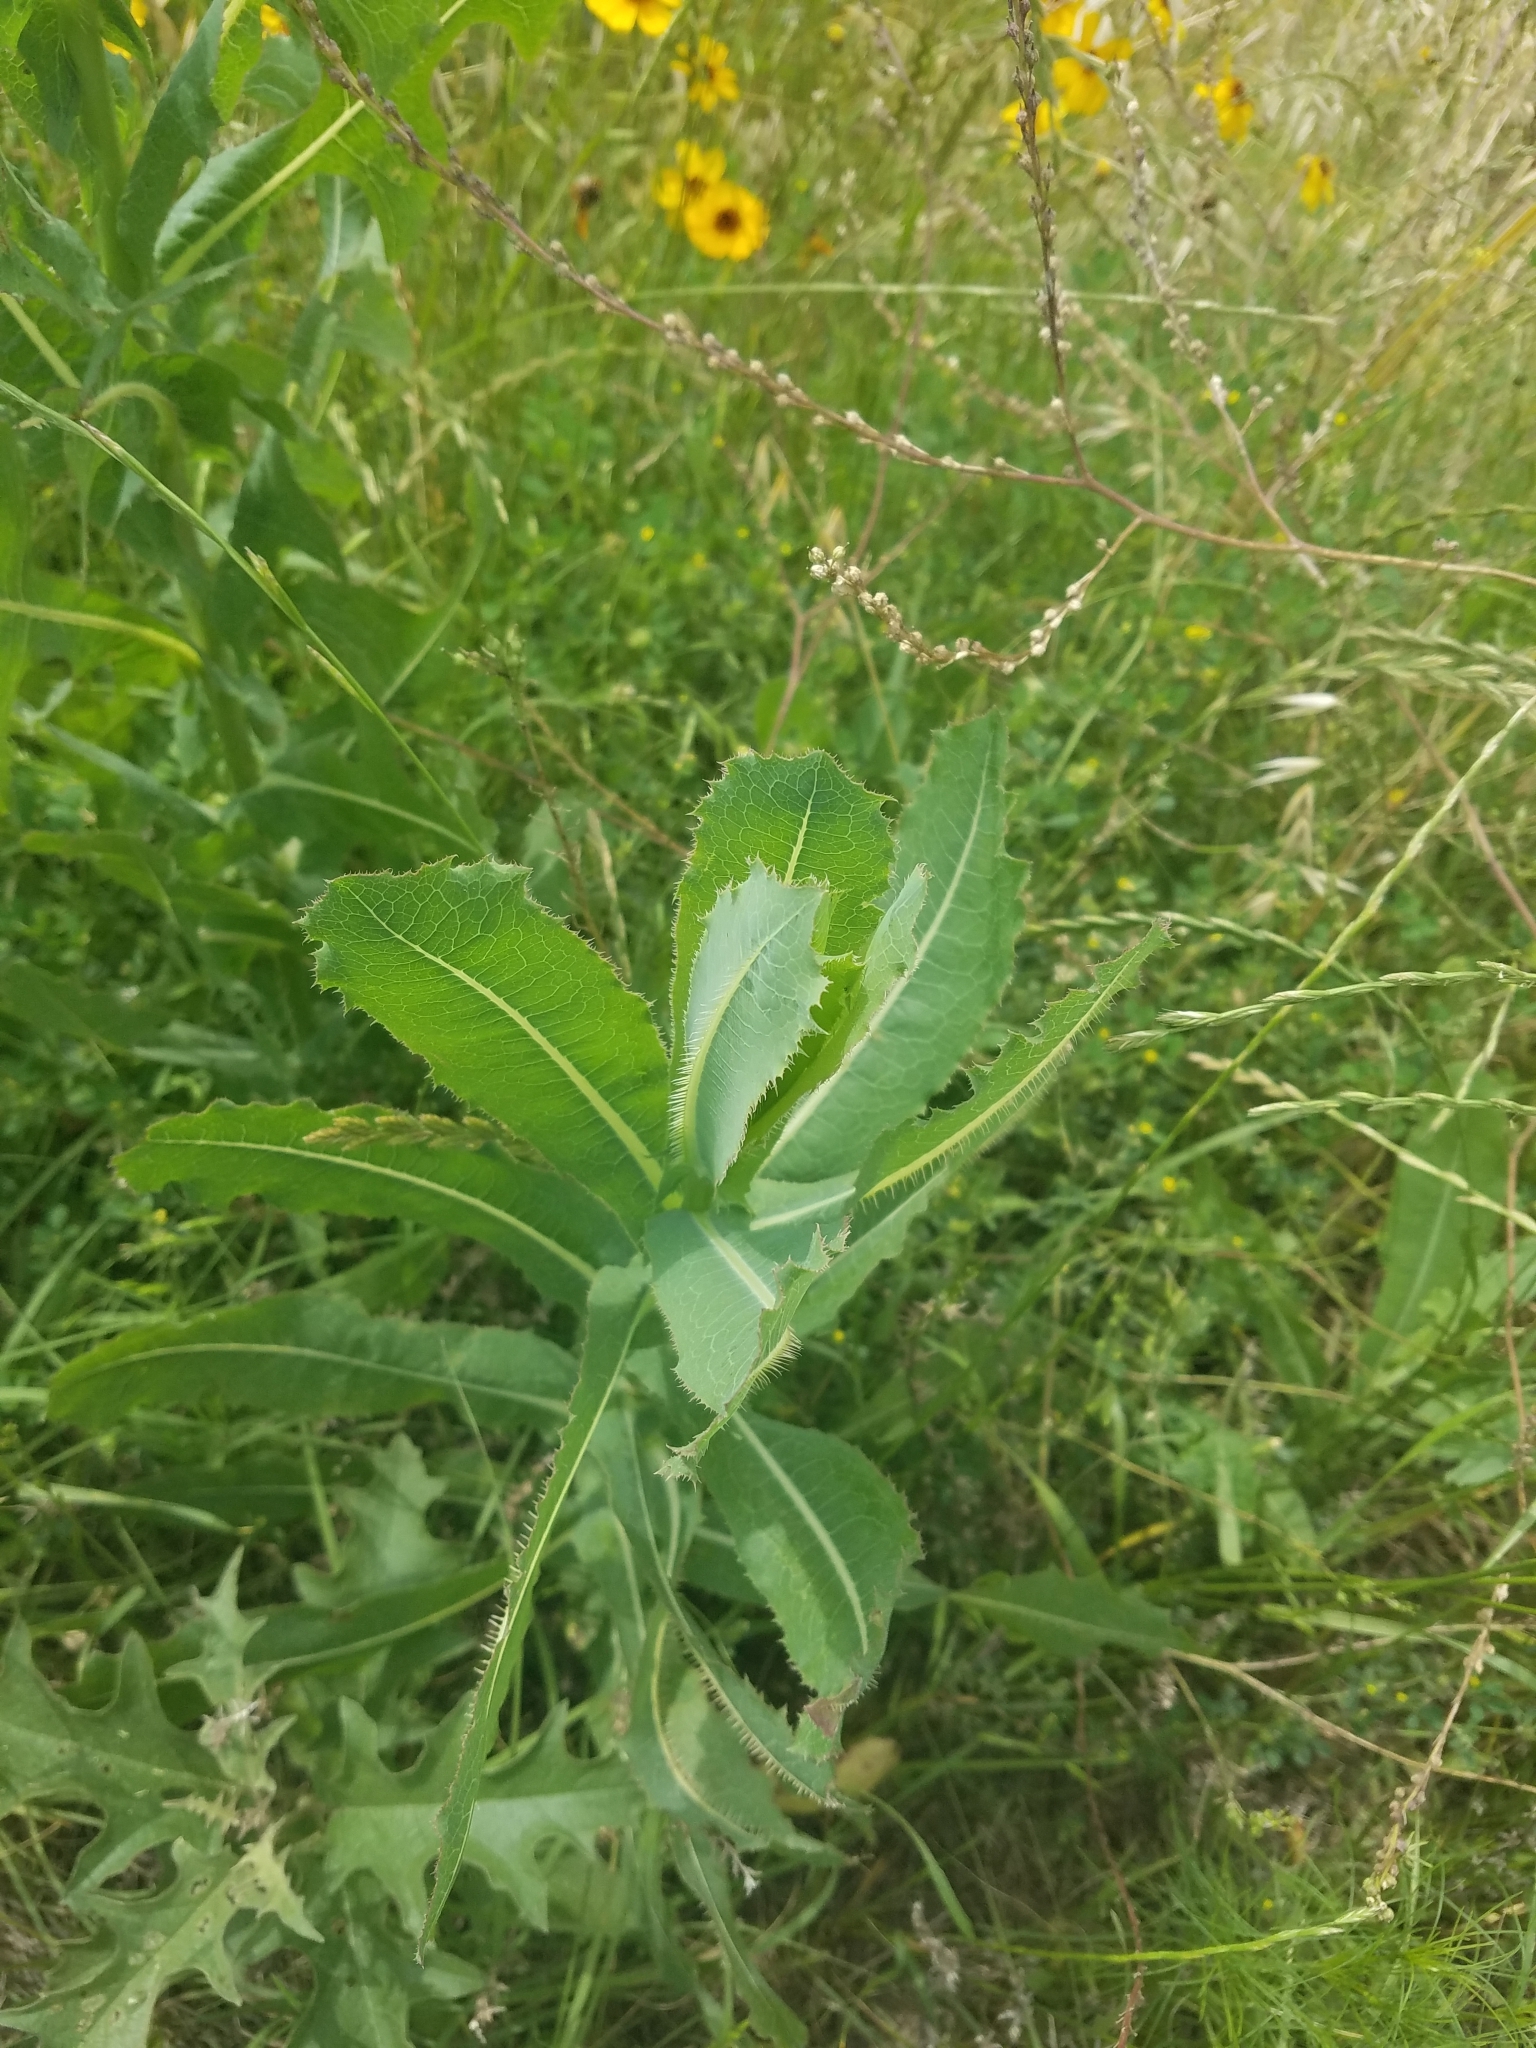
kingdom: Plantae
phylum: Tracheophyta
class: Magnoliopsida
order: Asterales
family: Asteraceae
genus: Lactuca
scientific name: Lactuca serriola
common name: Prickly lettuce
